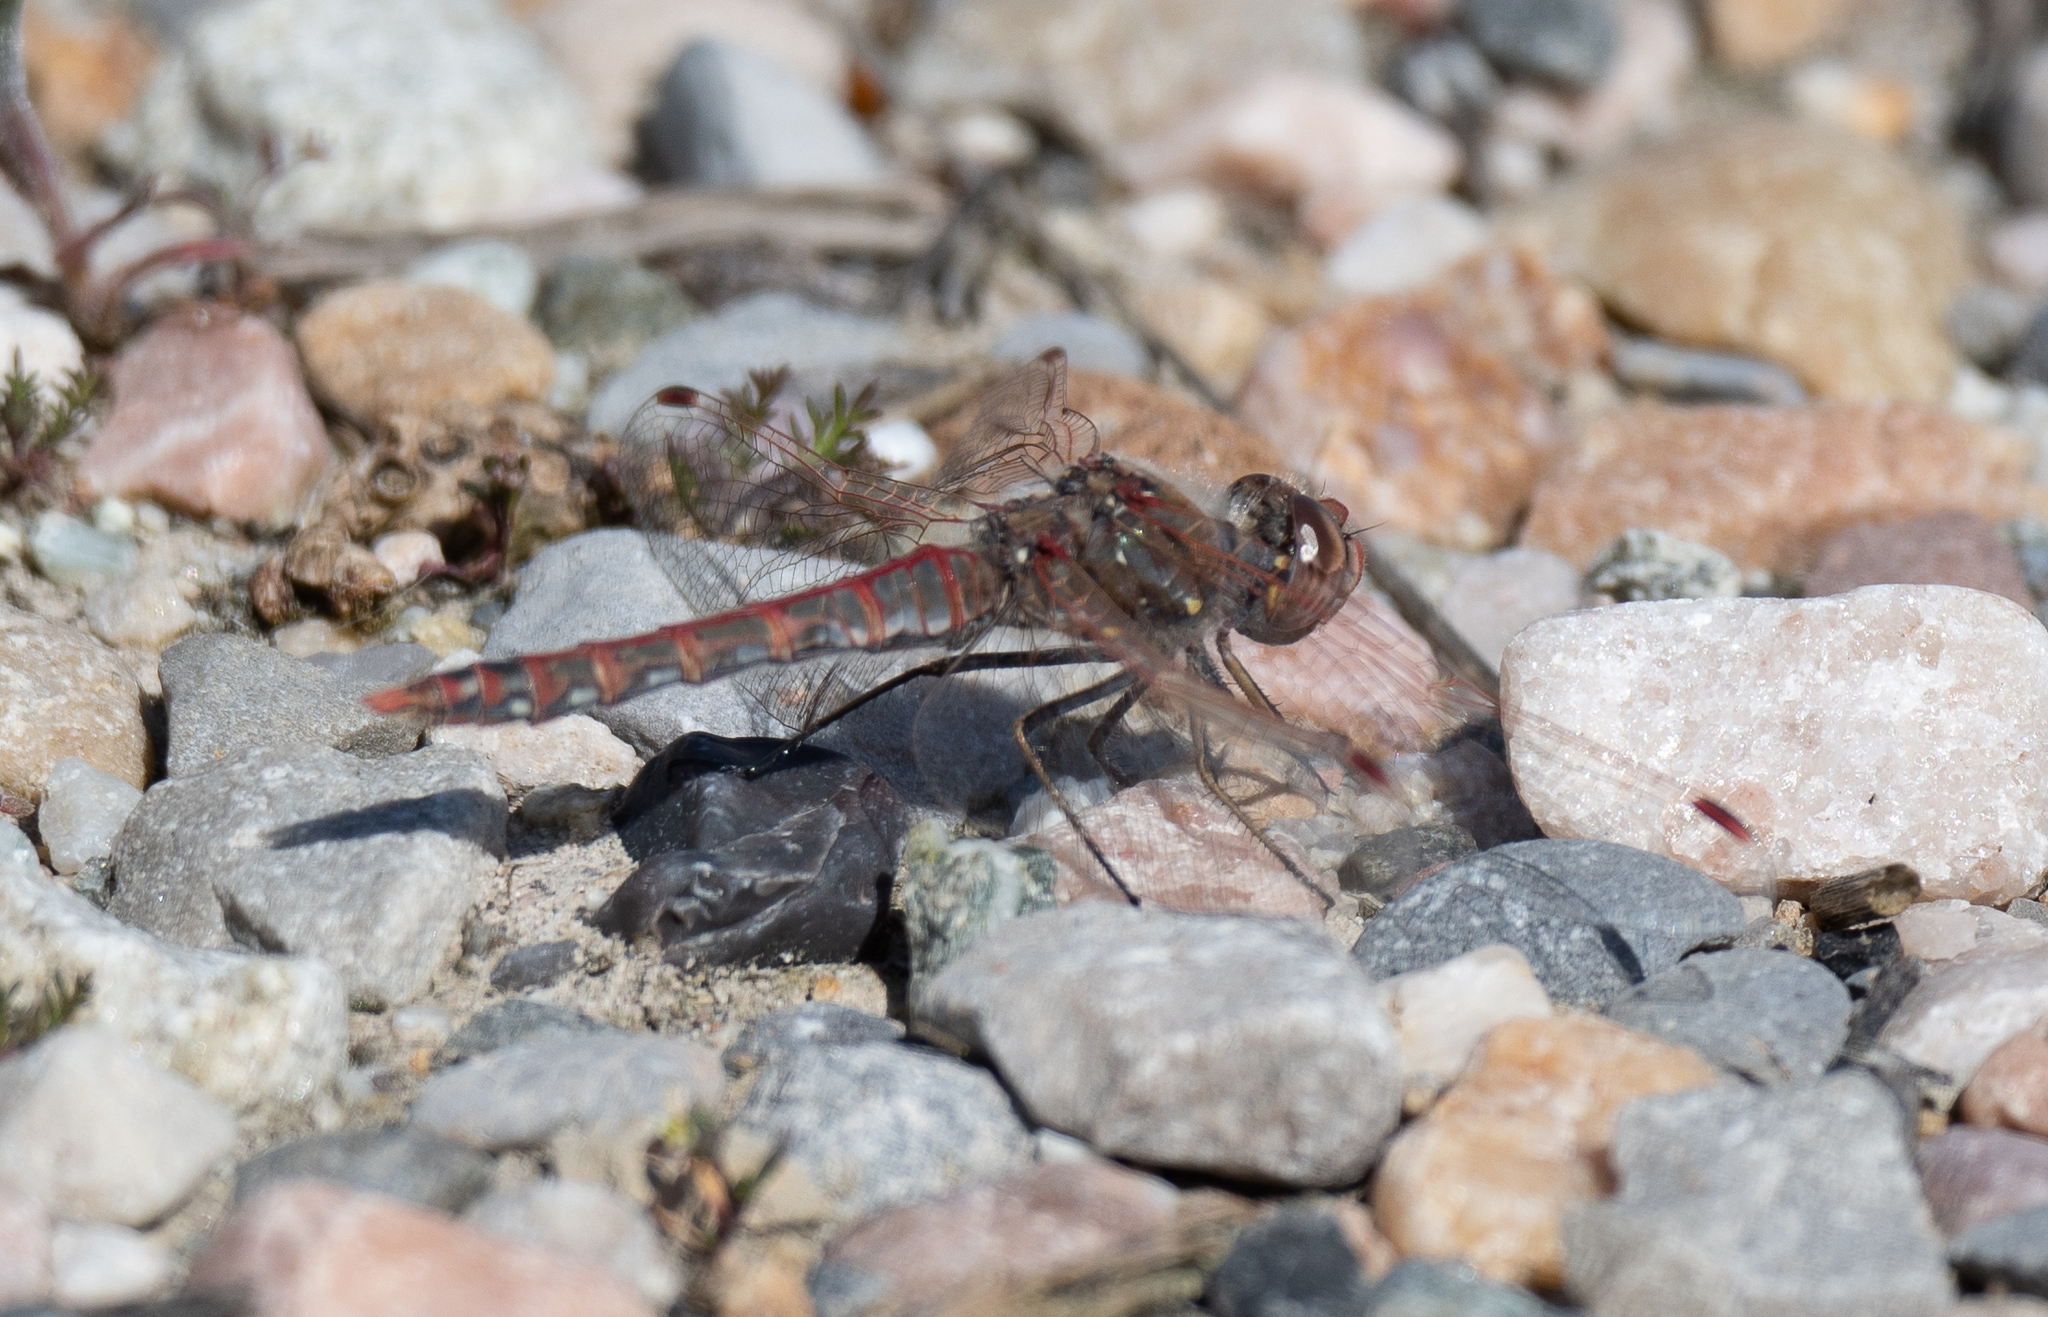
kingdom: Animalia
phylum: Arthropoda
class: Insecta
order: Odonata
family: Libellulidae
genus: Sympetrum
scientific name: Sympetrum corruptum
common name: Variegated meadowhawk
